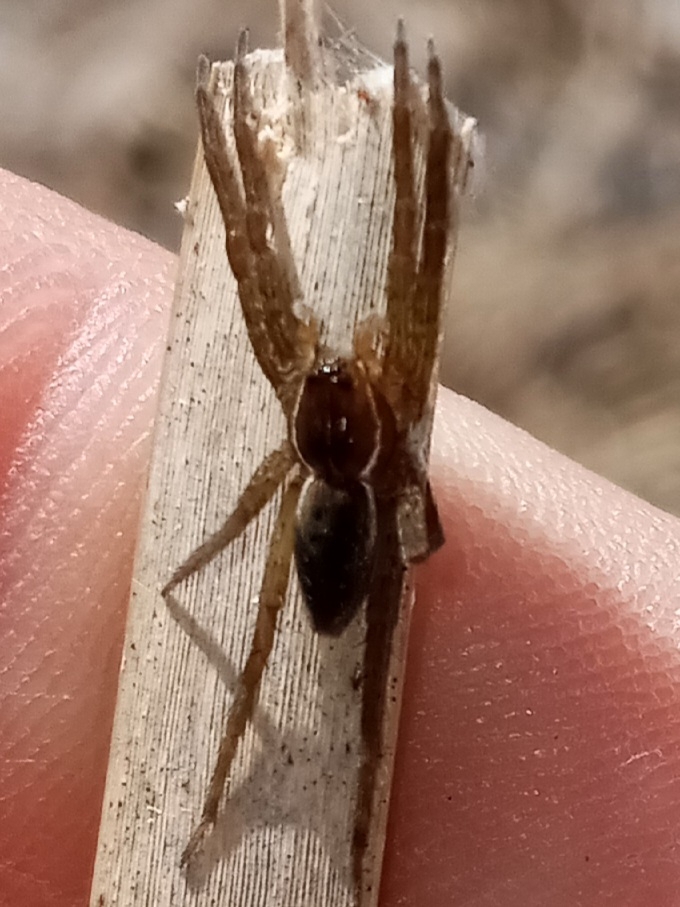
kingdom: Animalia
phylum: Arthropoda
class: Arachnida
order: Araneae
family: Pisauridae
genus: Dolomedes
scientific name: Dolomedes triton
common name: Six-spotted fishing spider
